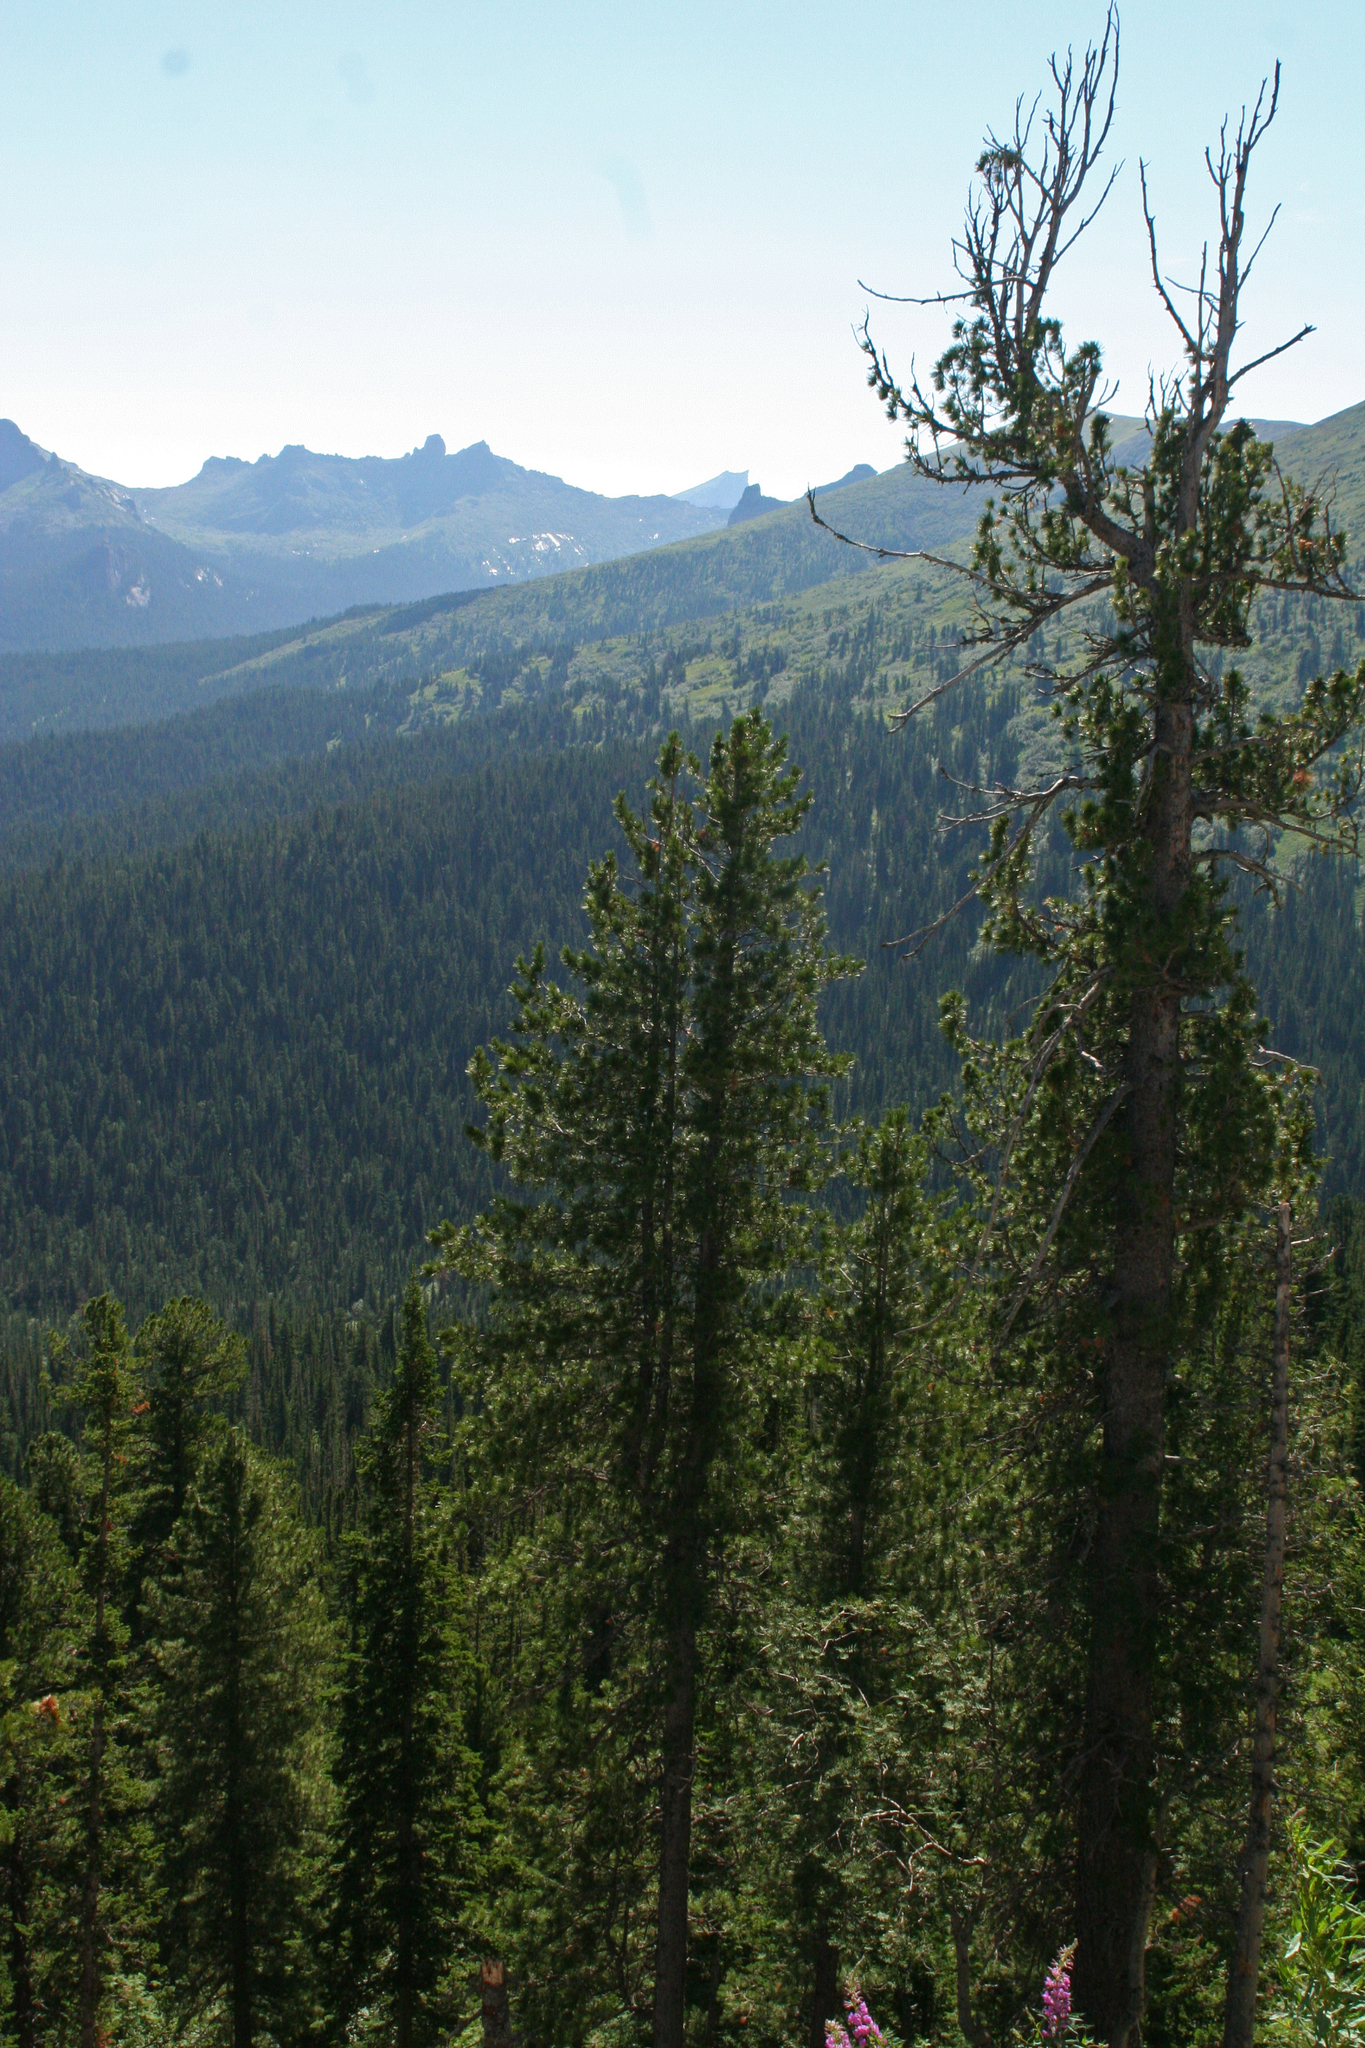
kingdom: Plantae
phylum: Tracheophyta
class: Pinopsida
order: Pinales
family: Pinaceae
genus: Abies
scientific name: Abies sibirica
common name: Siberian fir
